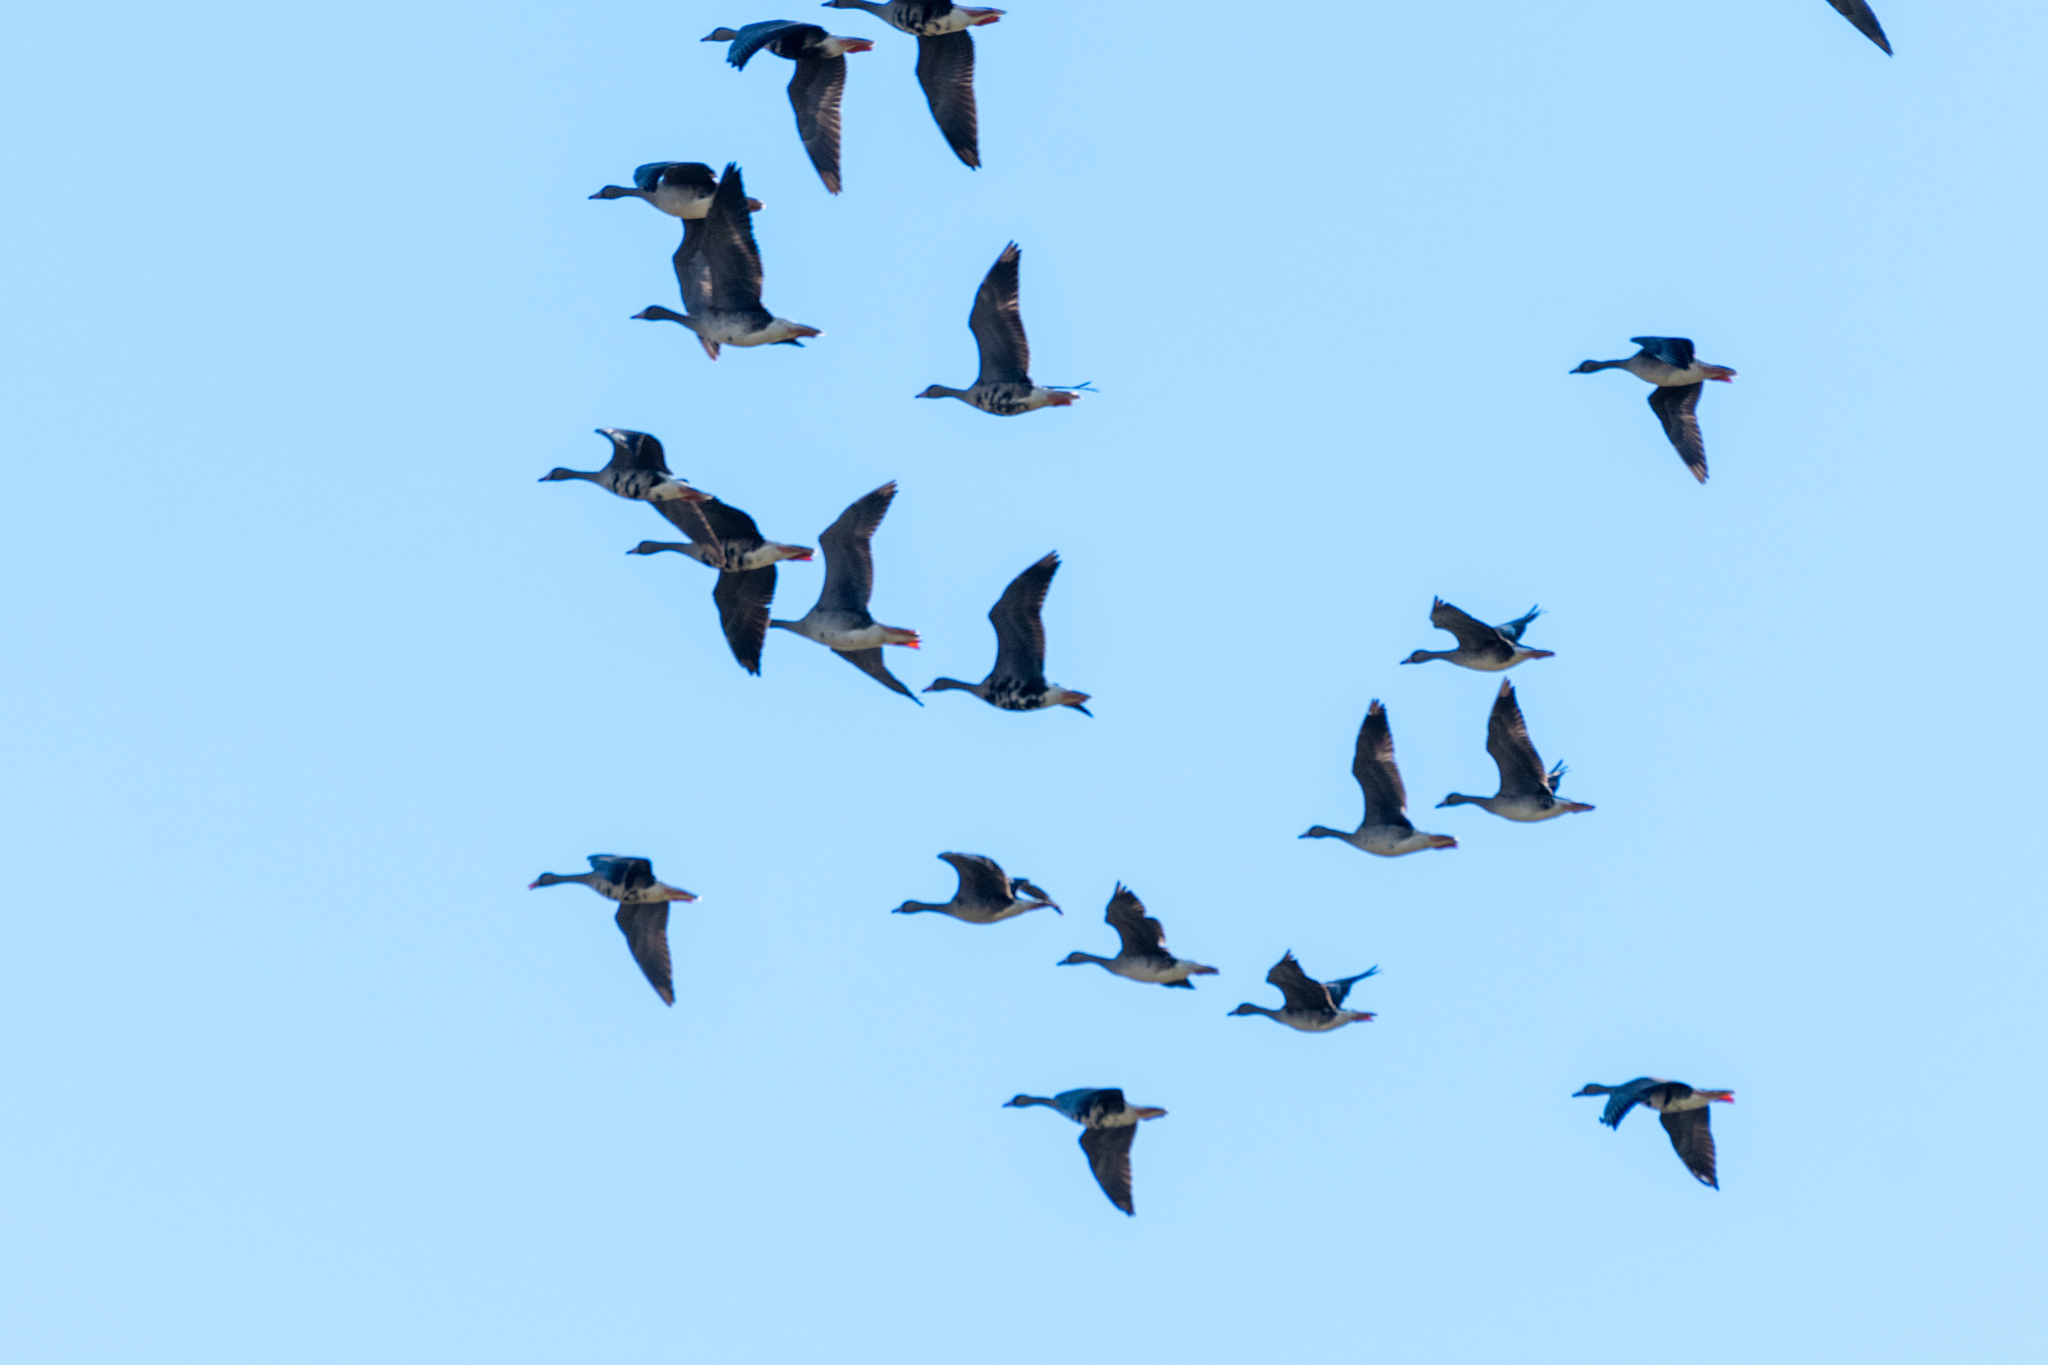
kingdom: Animalia
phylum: Chordata
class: Aves
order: Anseriformes
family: Anatidae
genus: Anser
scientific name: Anser albifrons
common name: Greater white-fronted goose
